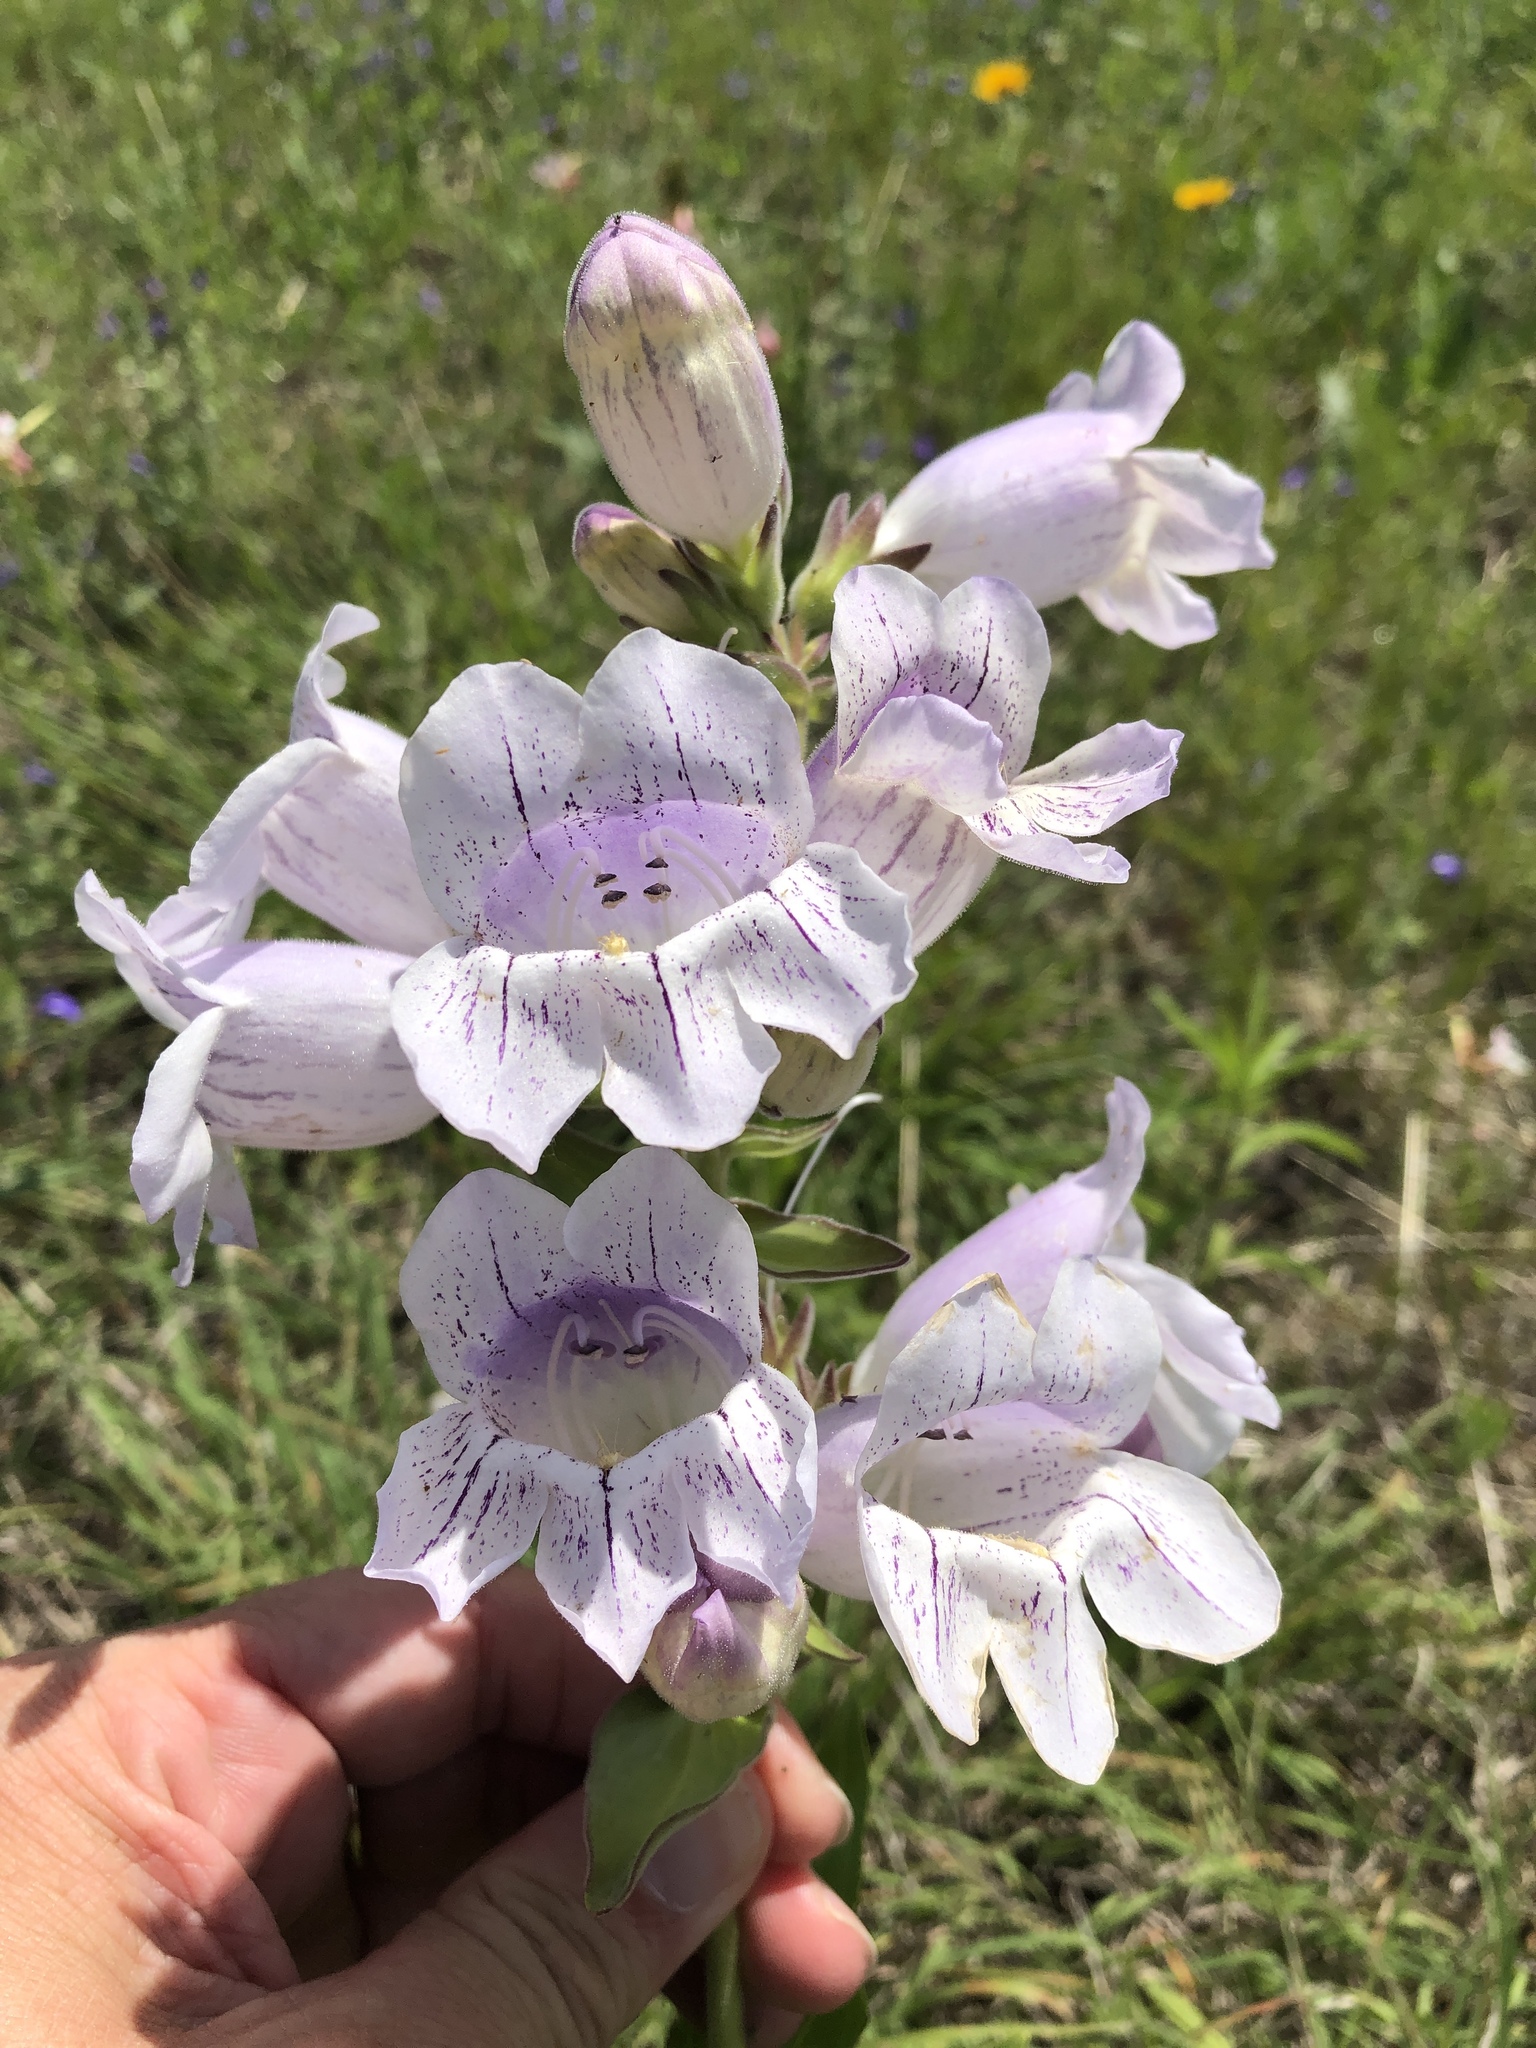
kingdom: Plantae
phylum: Tracheophyta
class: Magnoliopsida
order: Lamiales
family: Plantaginaceae
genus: Penstemon
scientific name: Penstemon cobaea
